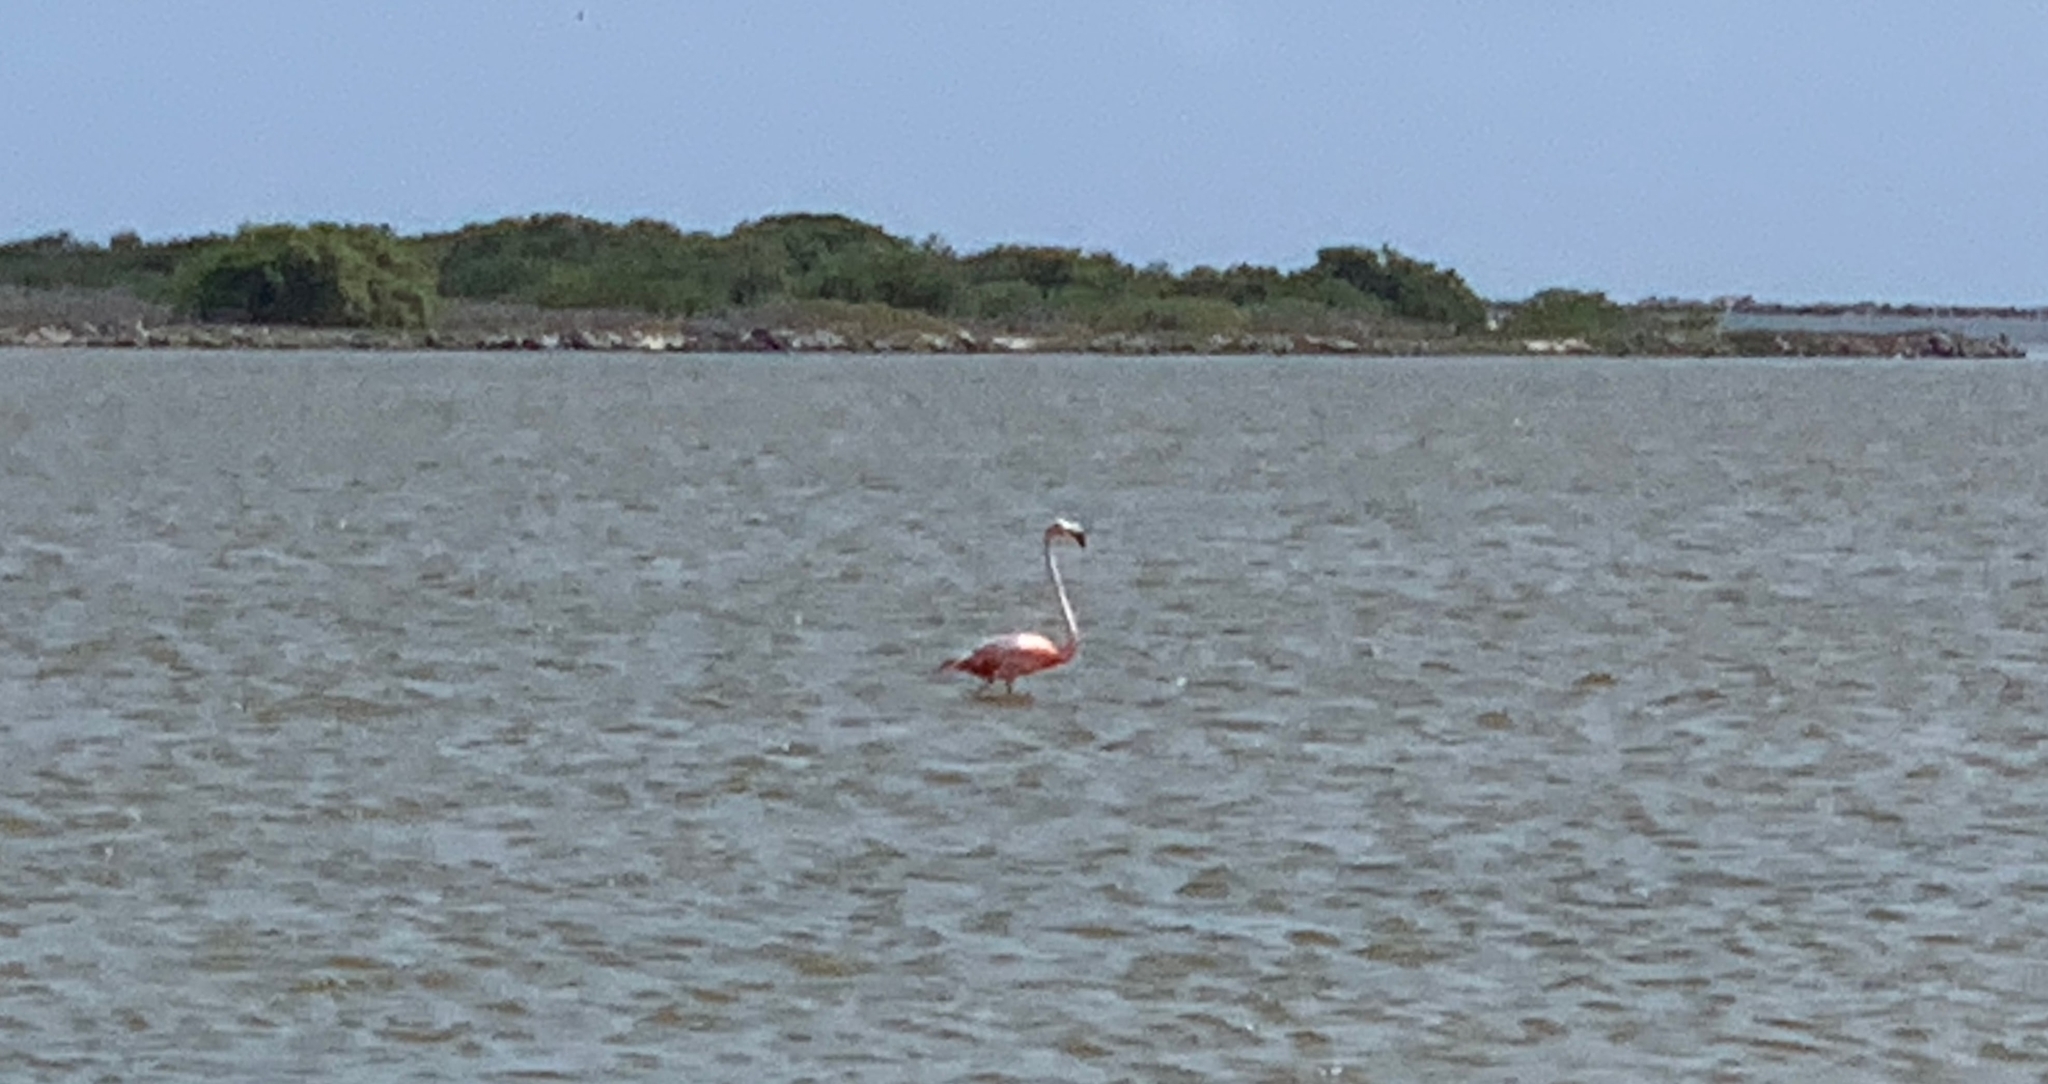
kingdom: Animalia
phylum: Chordata
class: Aves
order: Phoenicopteriformes
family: Phoenicopteridae
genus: Phoenicopterus
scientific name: Phoenicopterus ruber
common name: American flamingo
